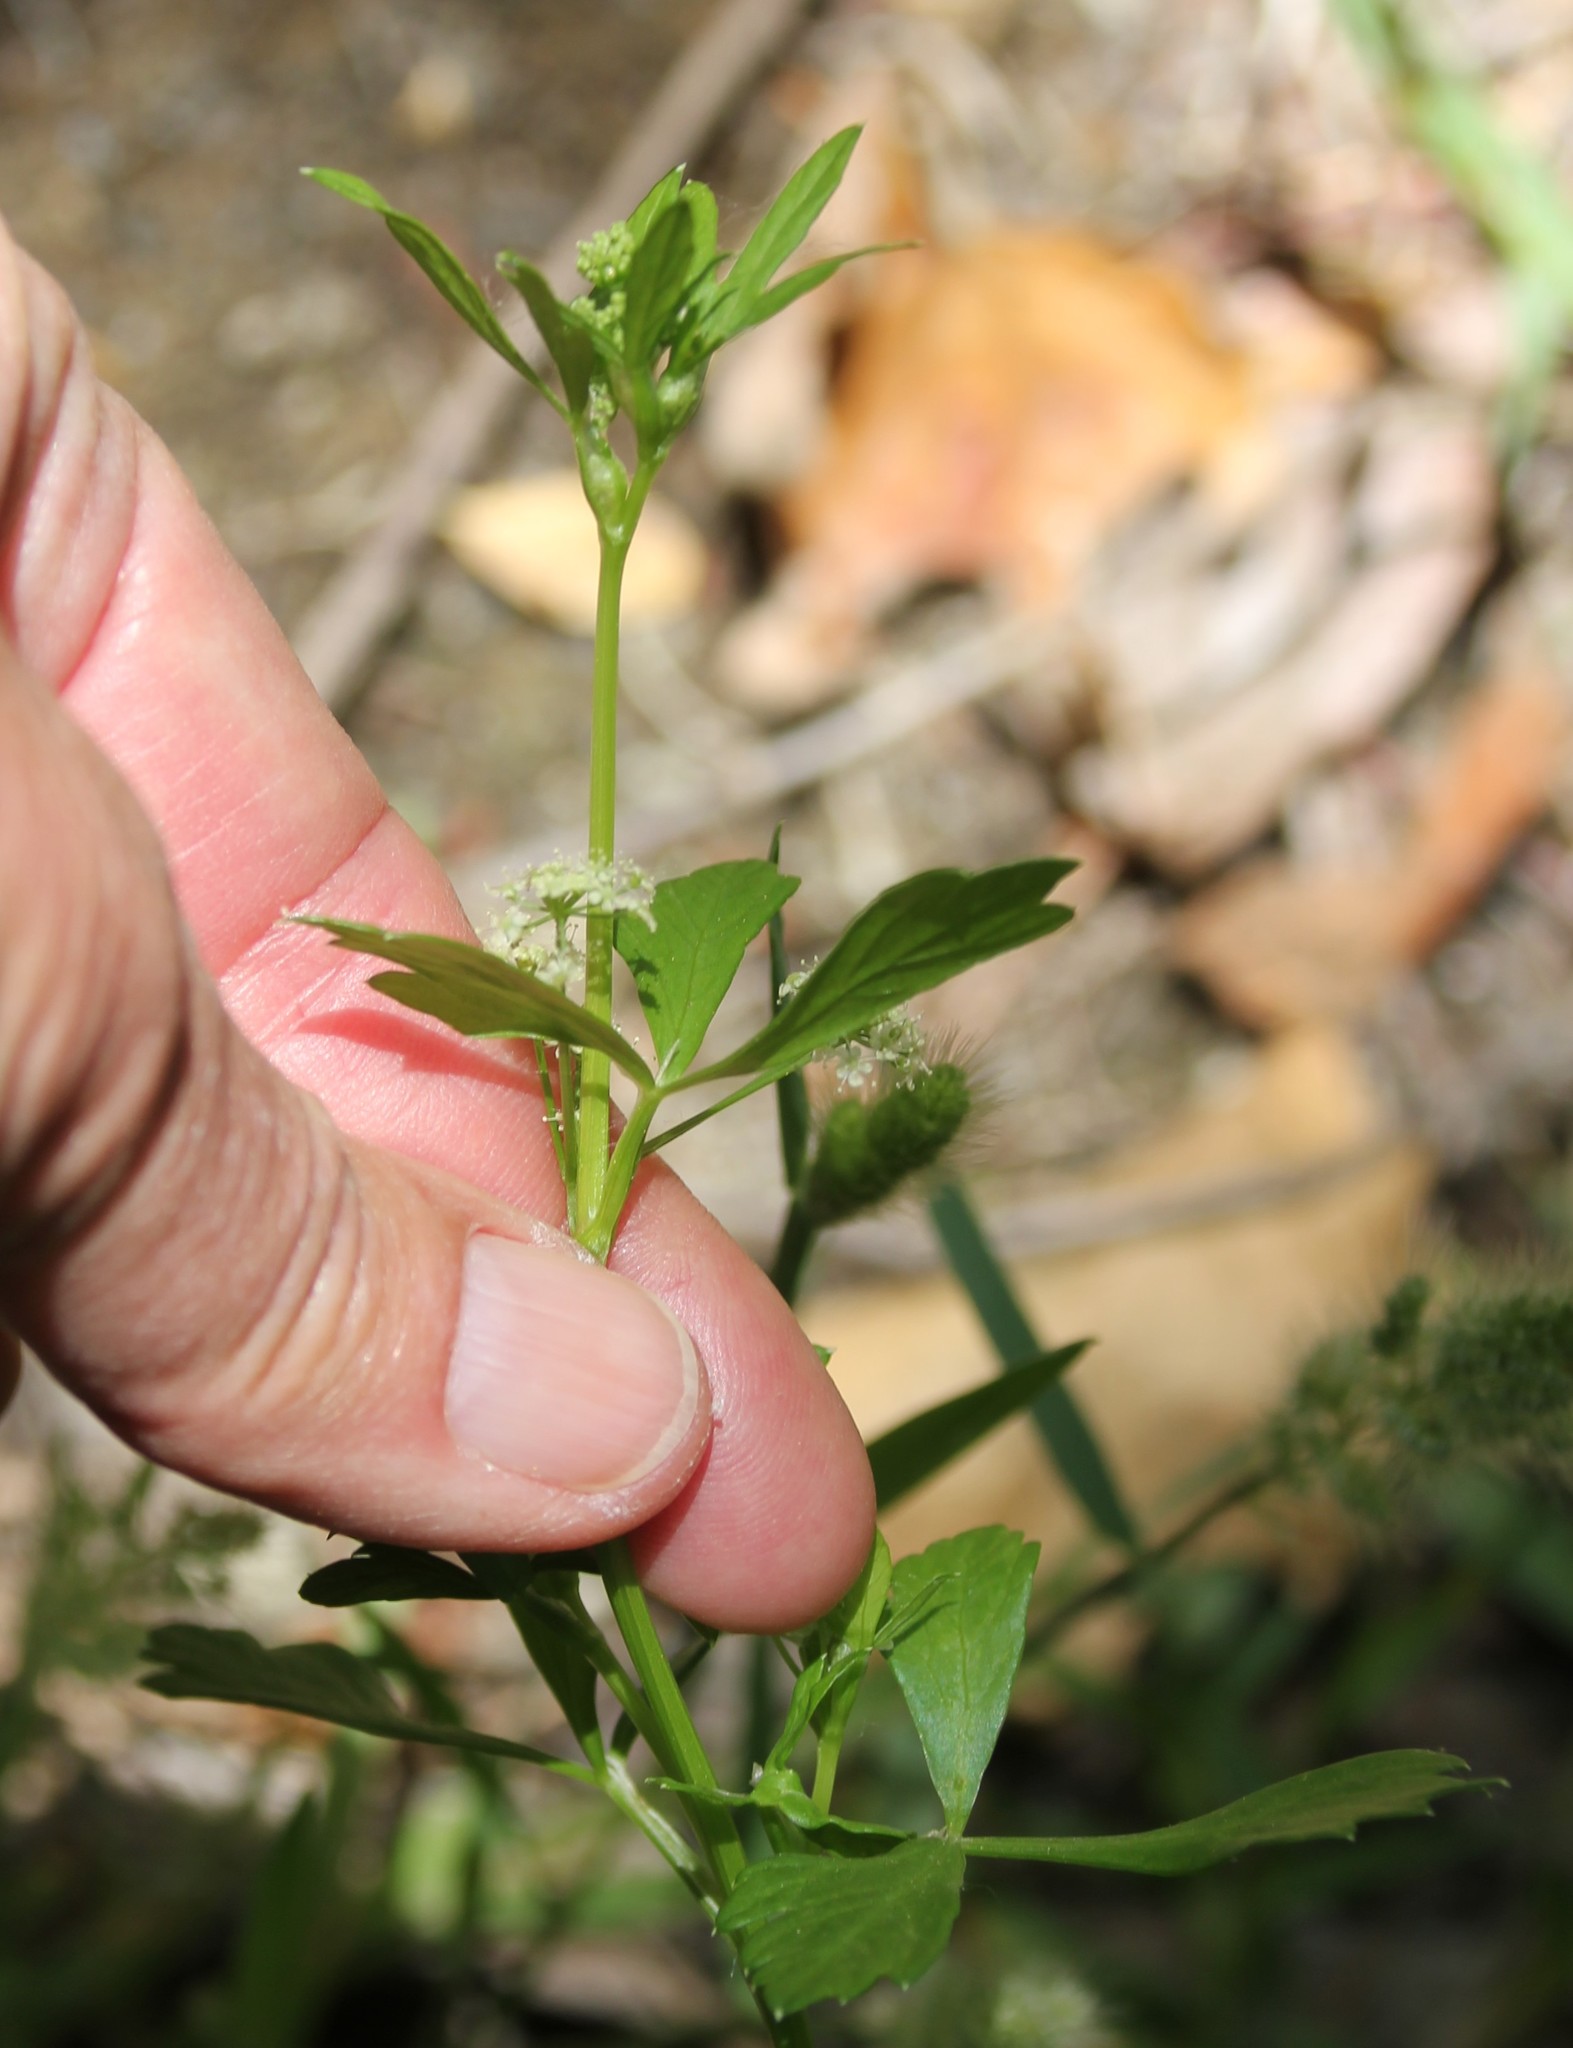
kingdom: Plantae
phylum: Tracheophyta
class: Magnoliopsida
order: Apiales
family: Apiaceae
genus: Apium
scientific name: Apium graveolens
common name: Wild celery
